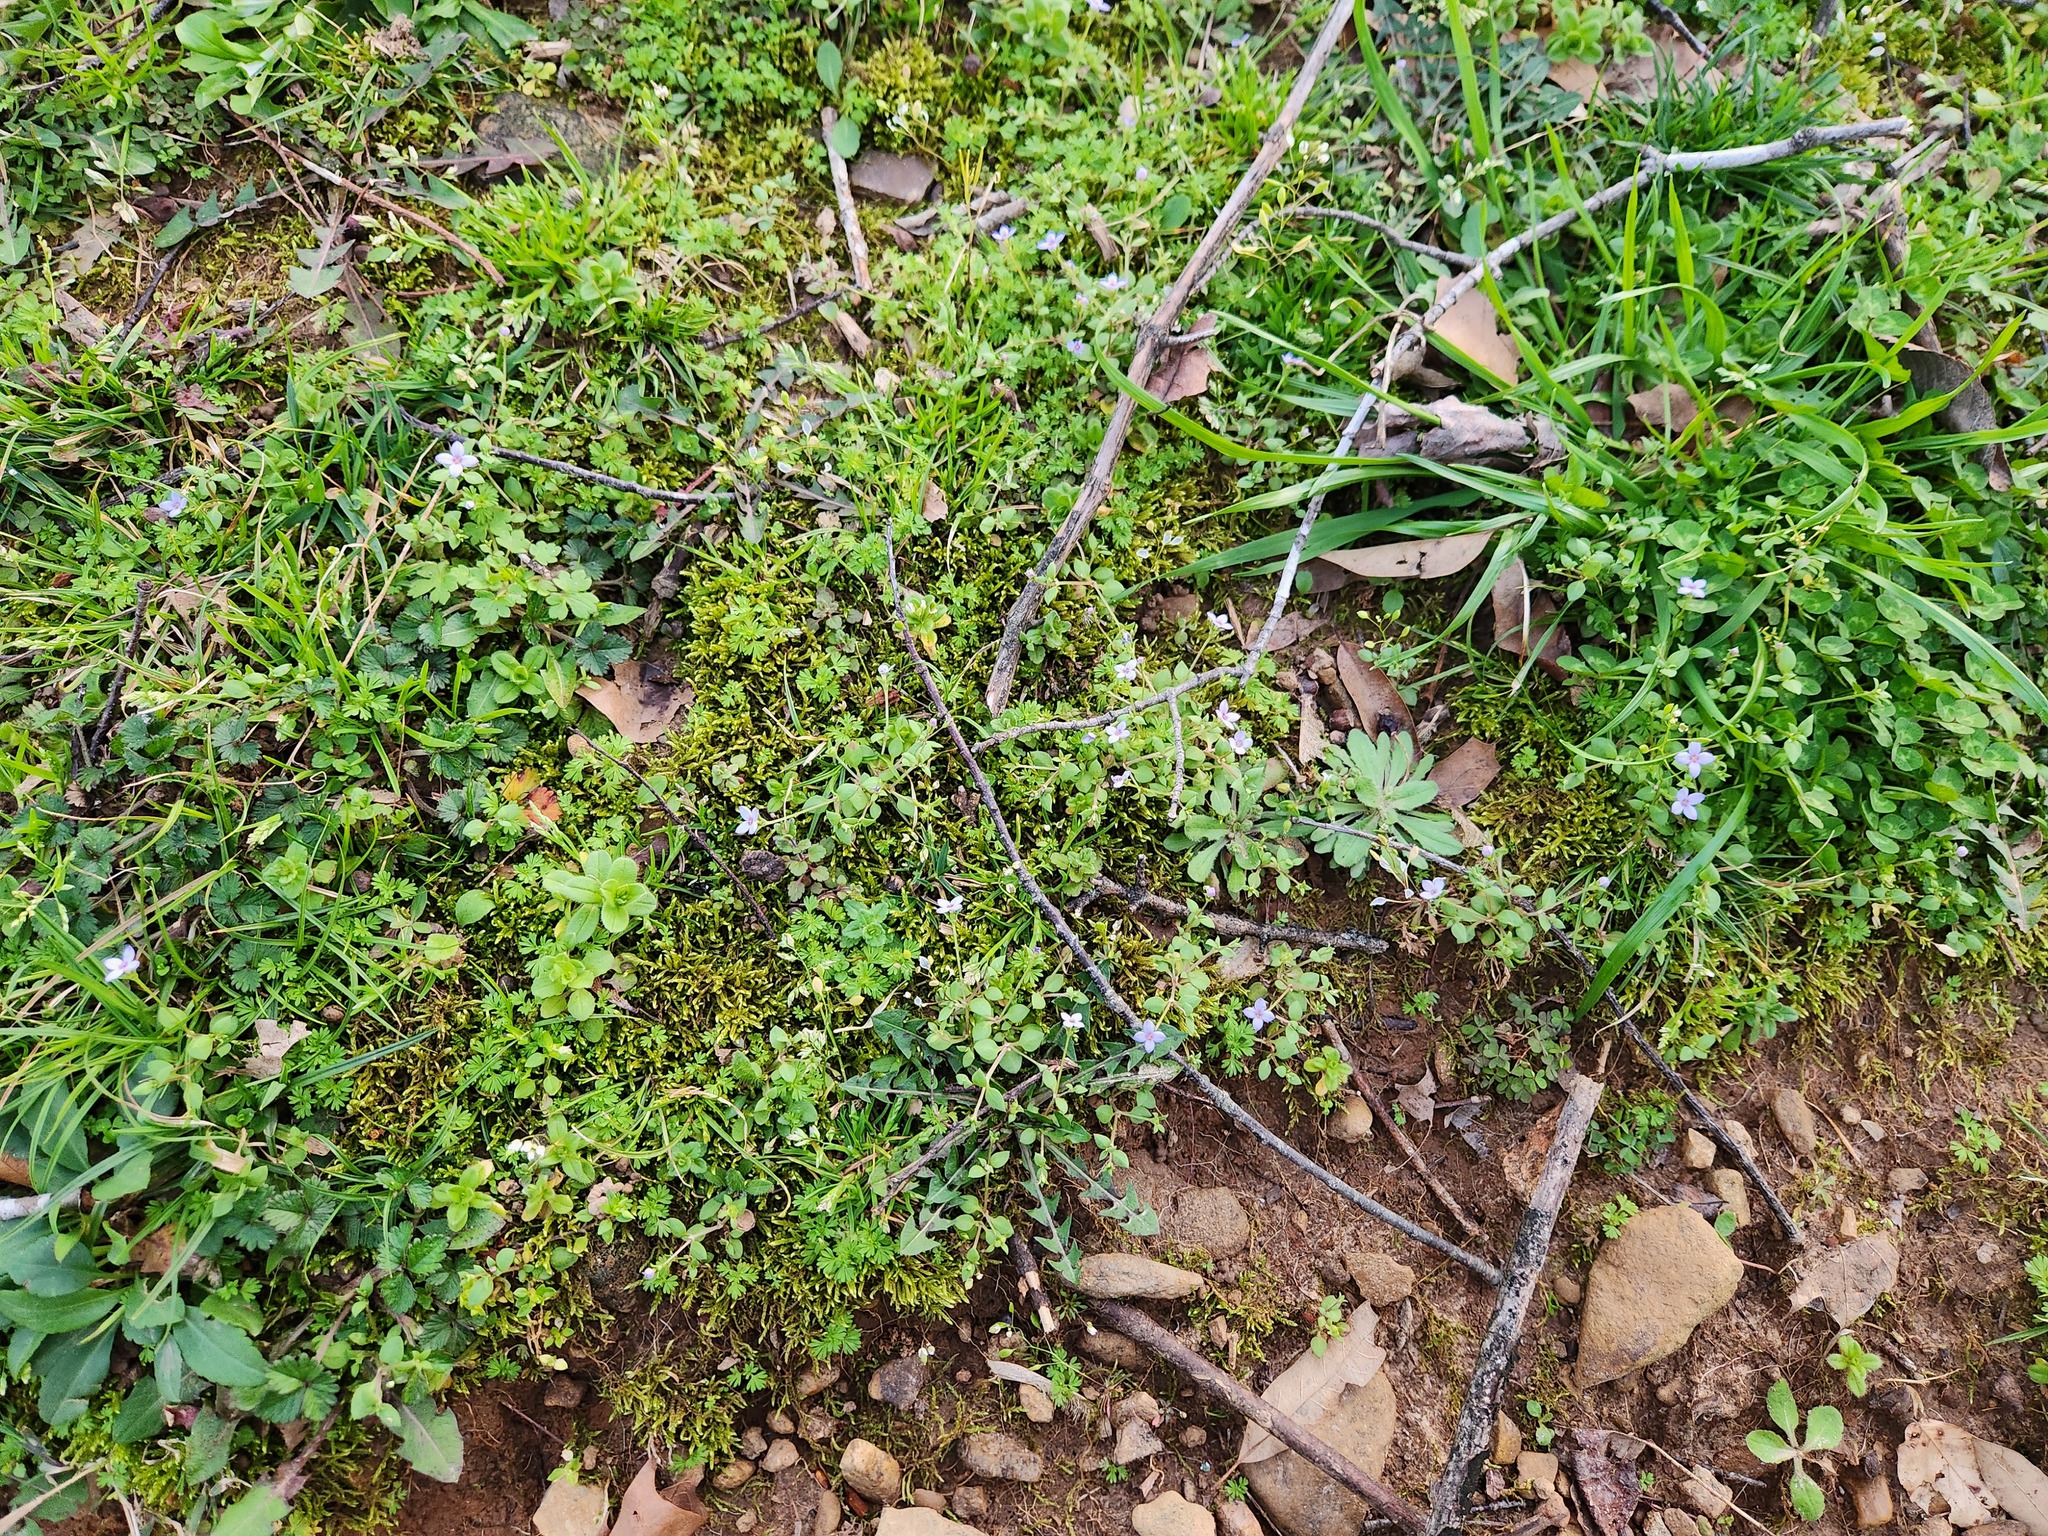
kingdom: Plantae
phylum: Tracheophyta
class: Magnoliopsida
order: Gentianales
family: Rubiaceae
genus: Houstonia
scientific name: Houstonia pusilla
